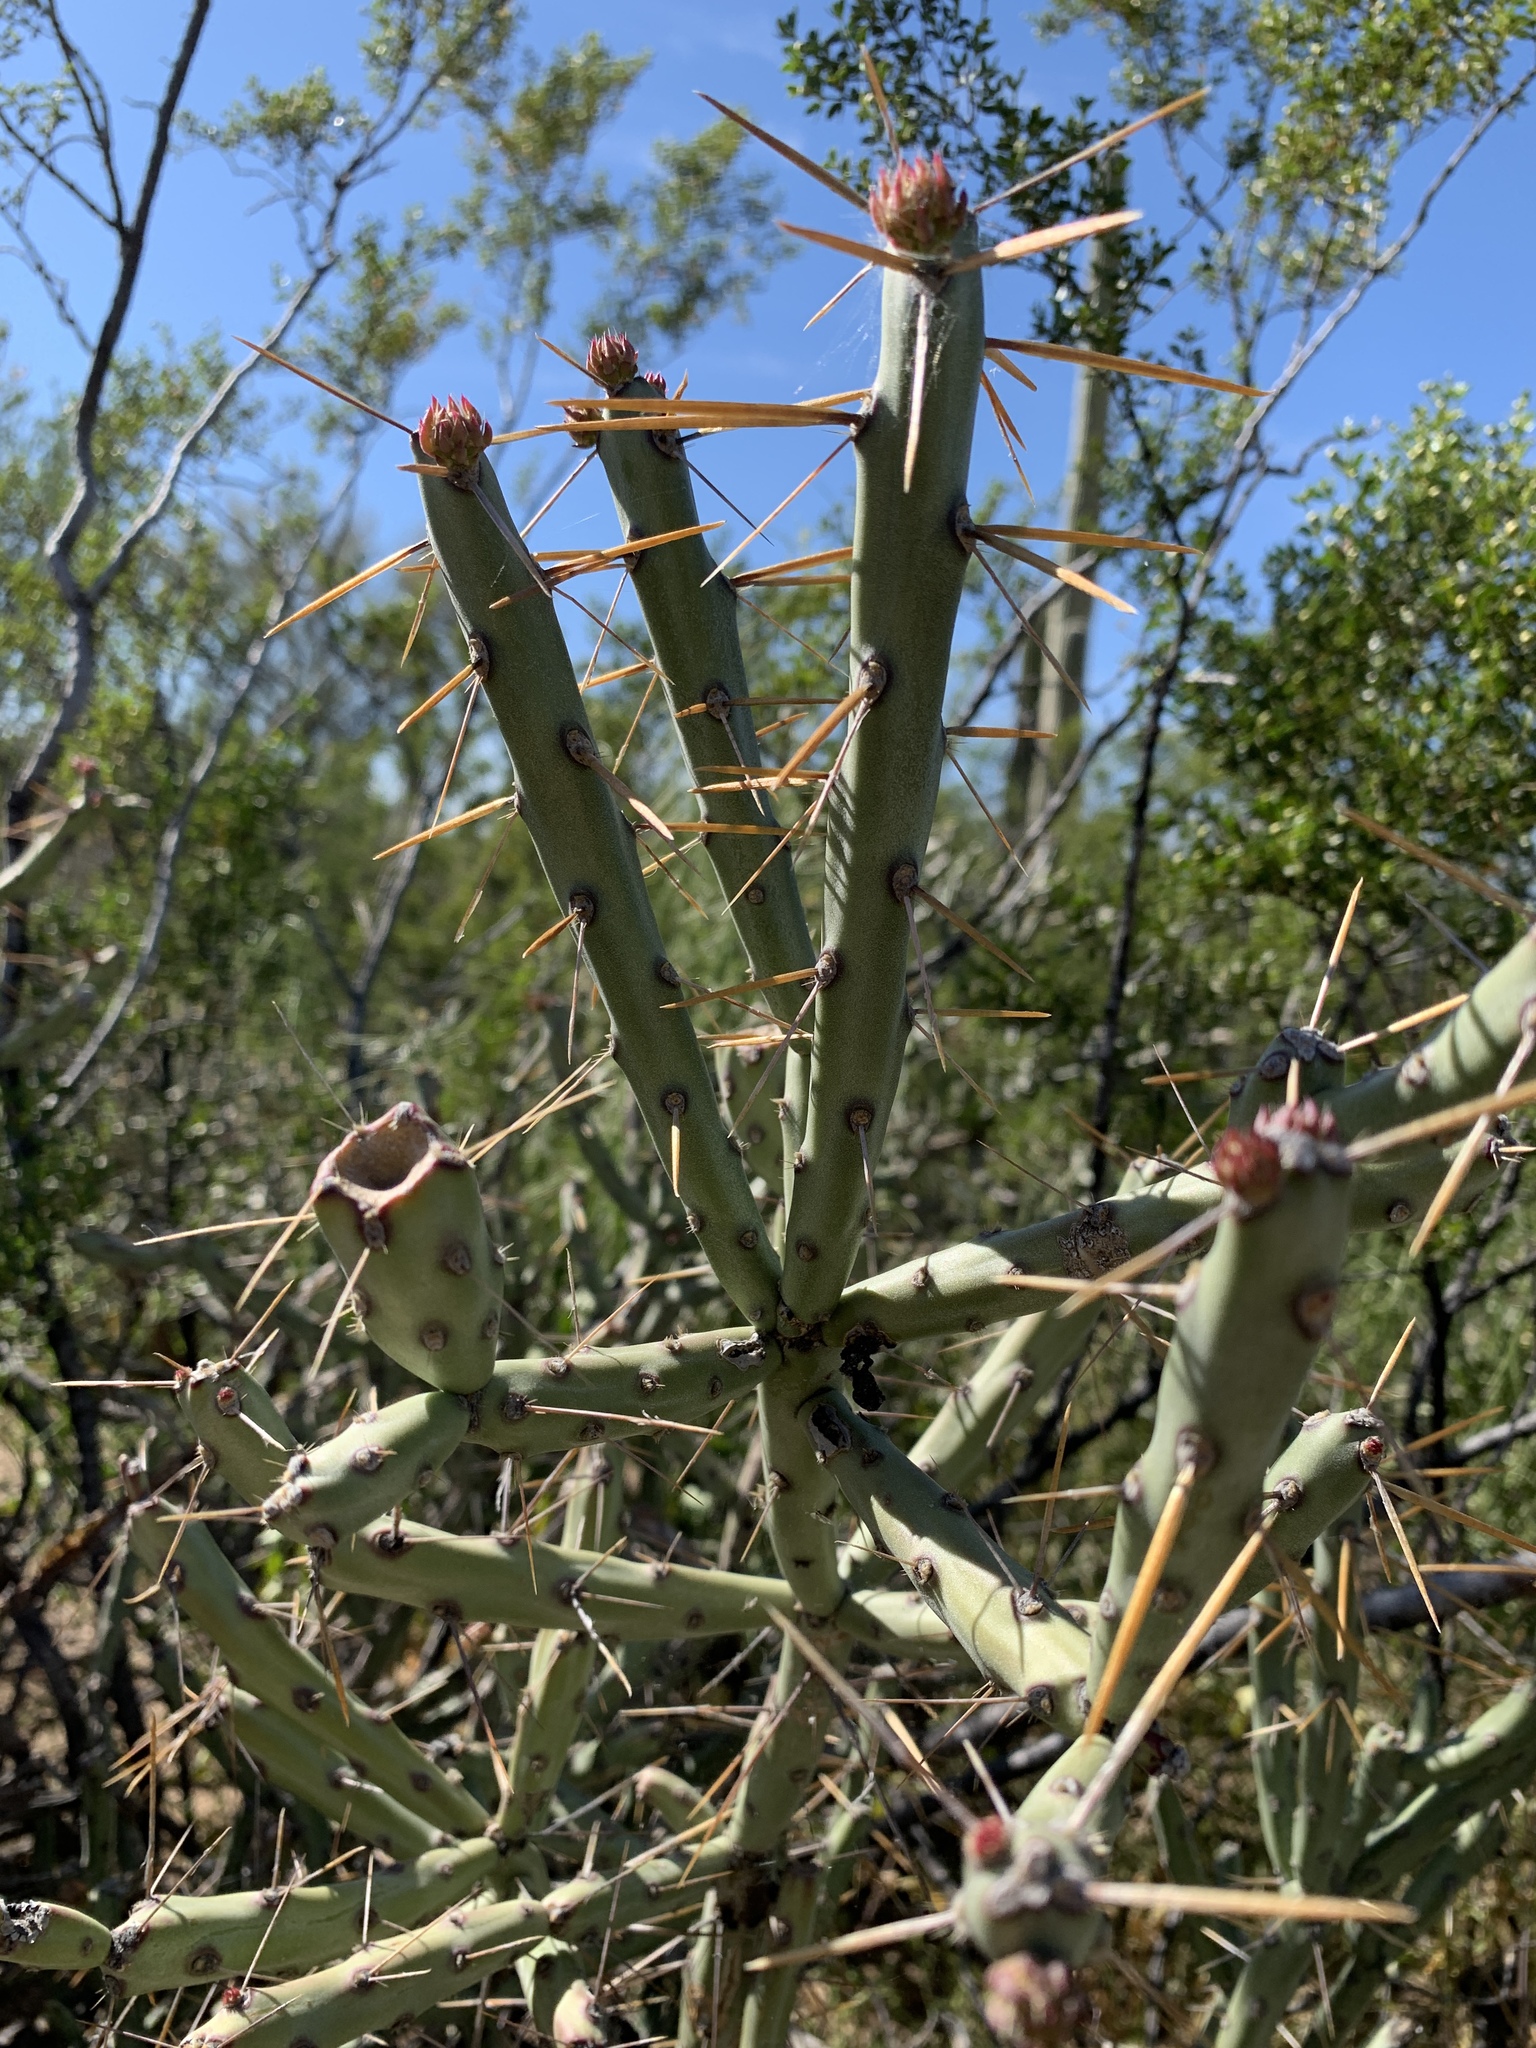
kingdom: Plantae
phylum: Tracheophyta
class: Magnoliopsida
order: Caryophyllales
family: Cactaceae
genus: Cylindropuntia
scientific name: Cylindropuntia arbuscula
